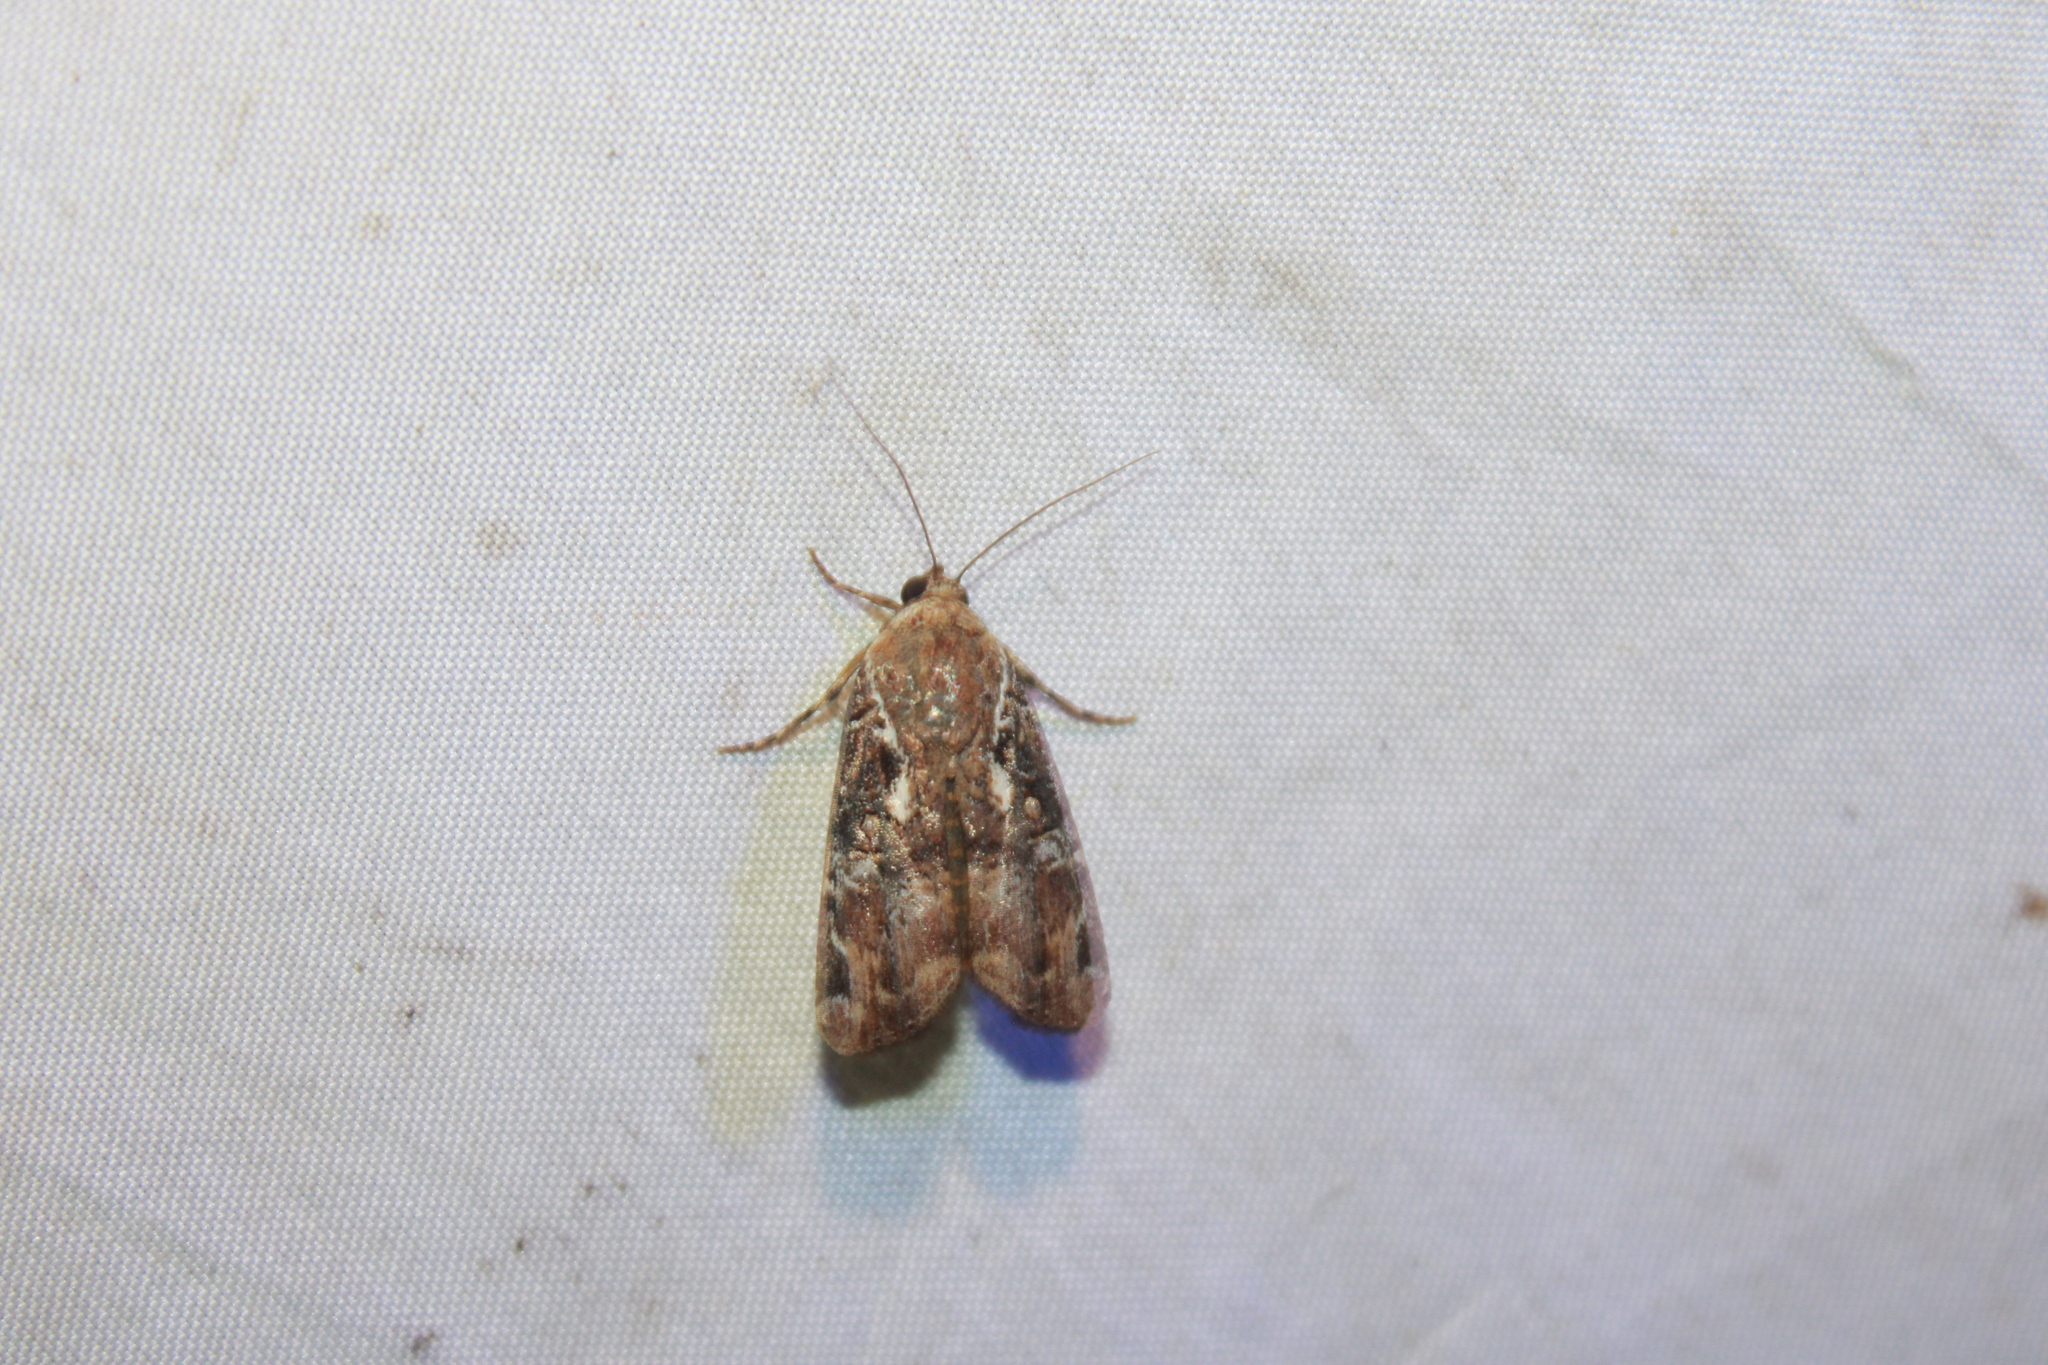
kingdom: Animalia
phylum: Arthropoda
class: Insecta
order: Lepidoptera
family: Noctuidae
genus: Magusa
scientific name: Magusa orbifera
